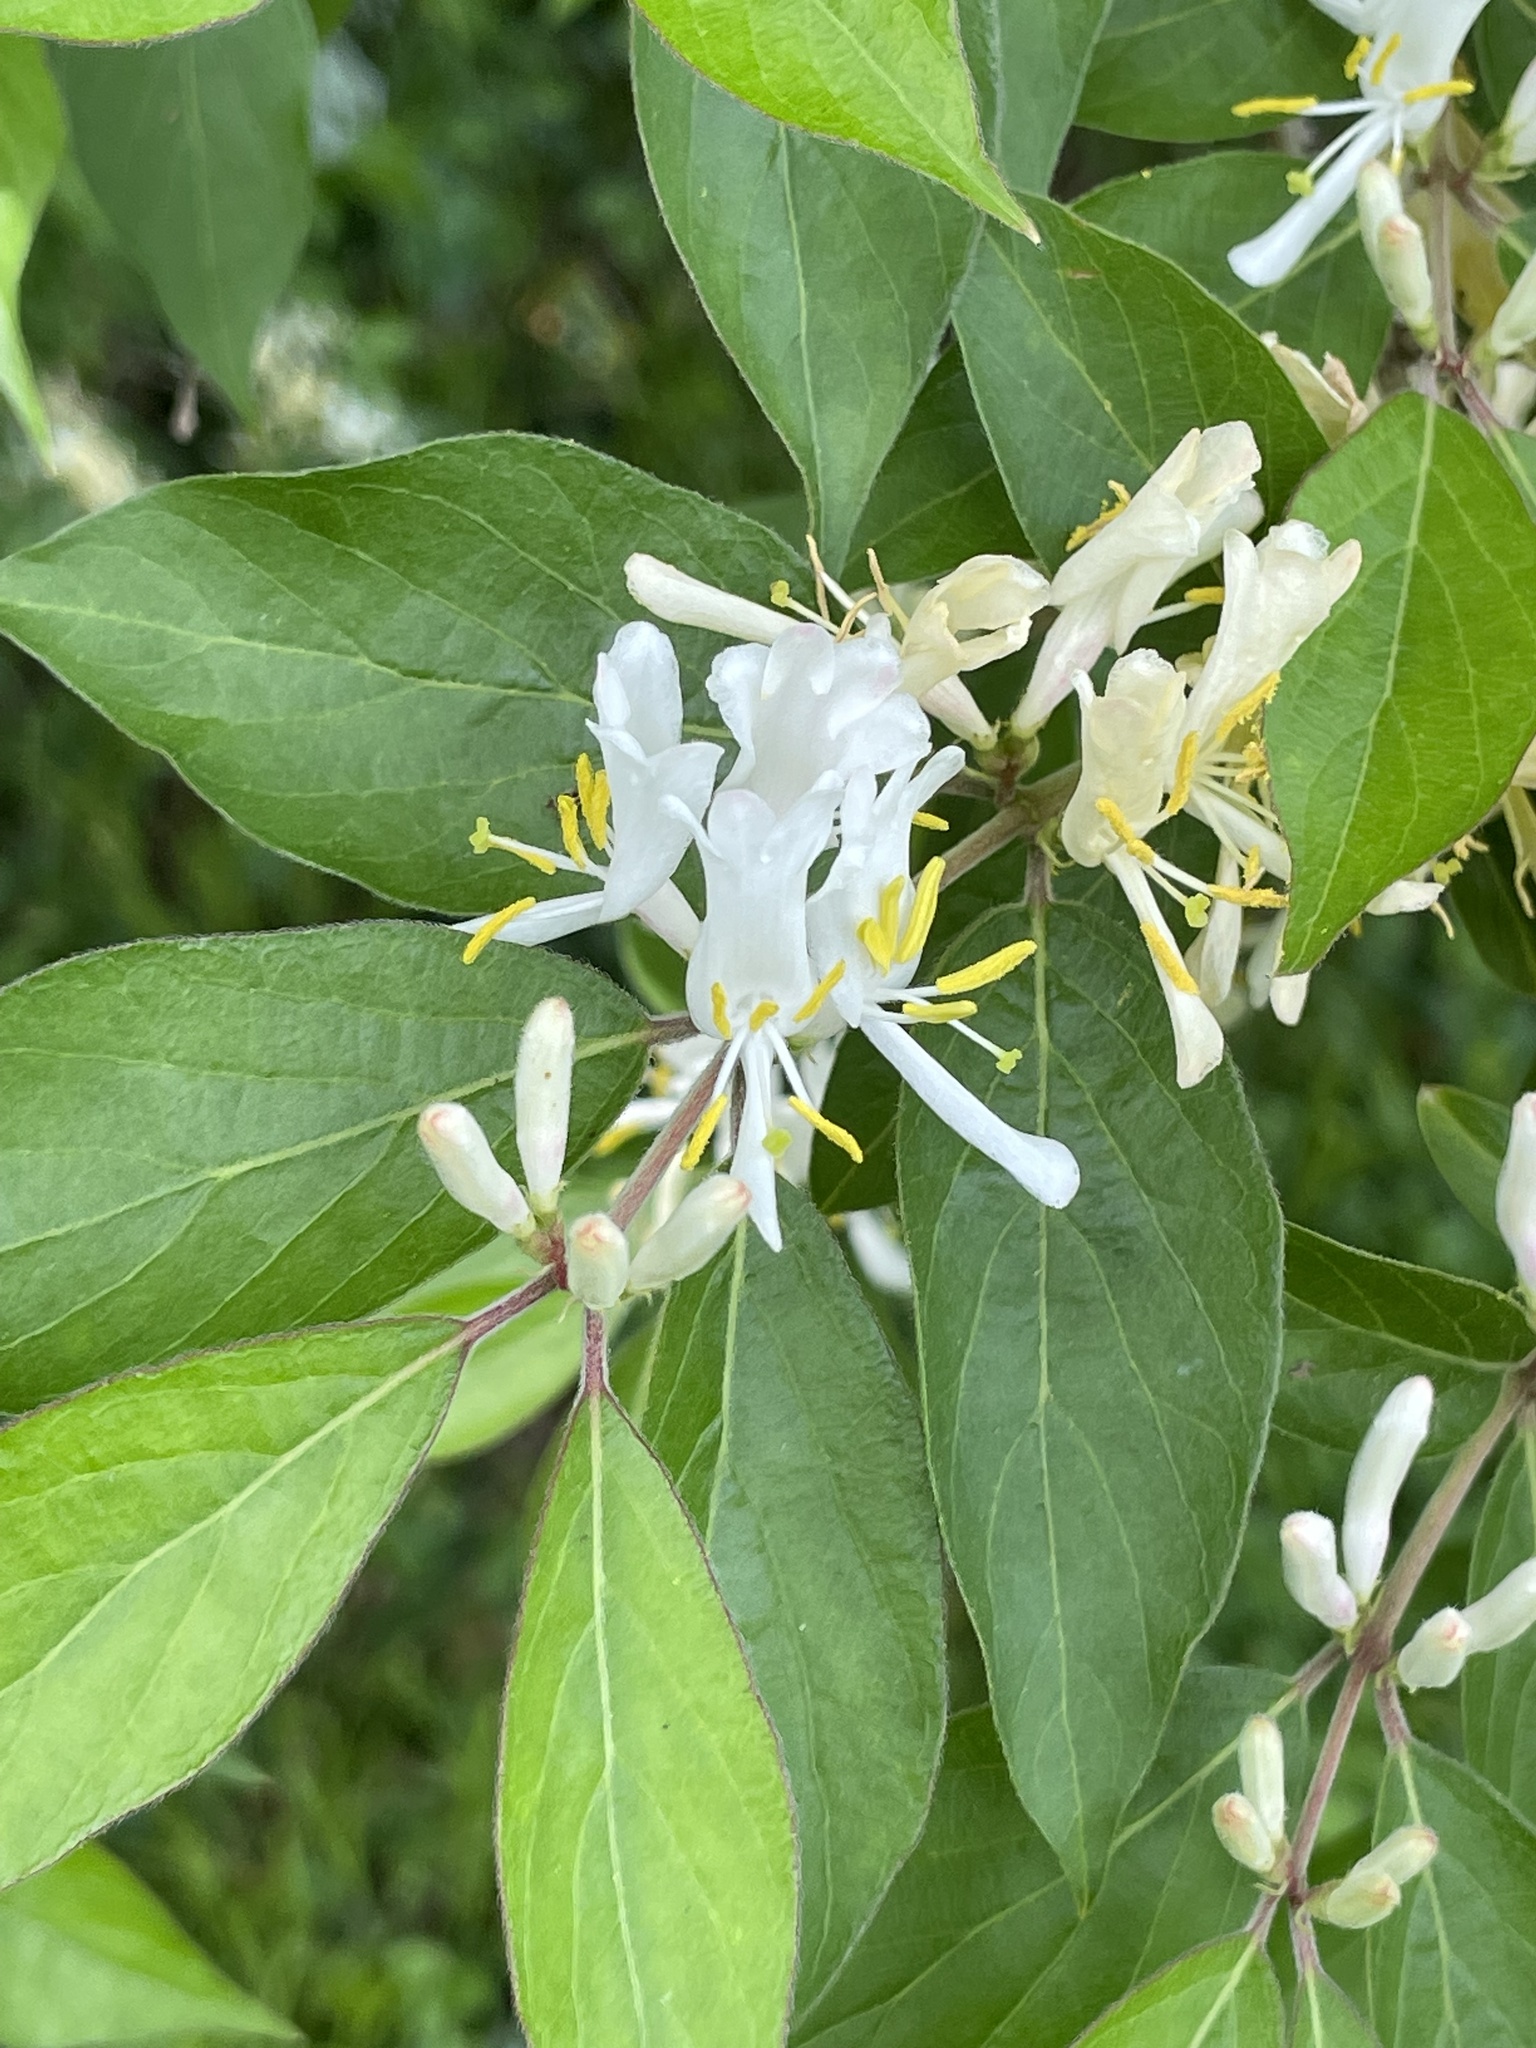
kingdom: Plantae
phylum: Tracheophyta
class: Magnoliopsida
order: Dipsacales
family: Caprifoliaceae
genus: Lonicera
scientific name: Lonicera maackii
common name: Amur honeysuckle
